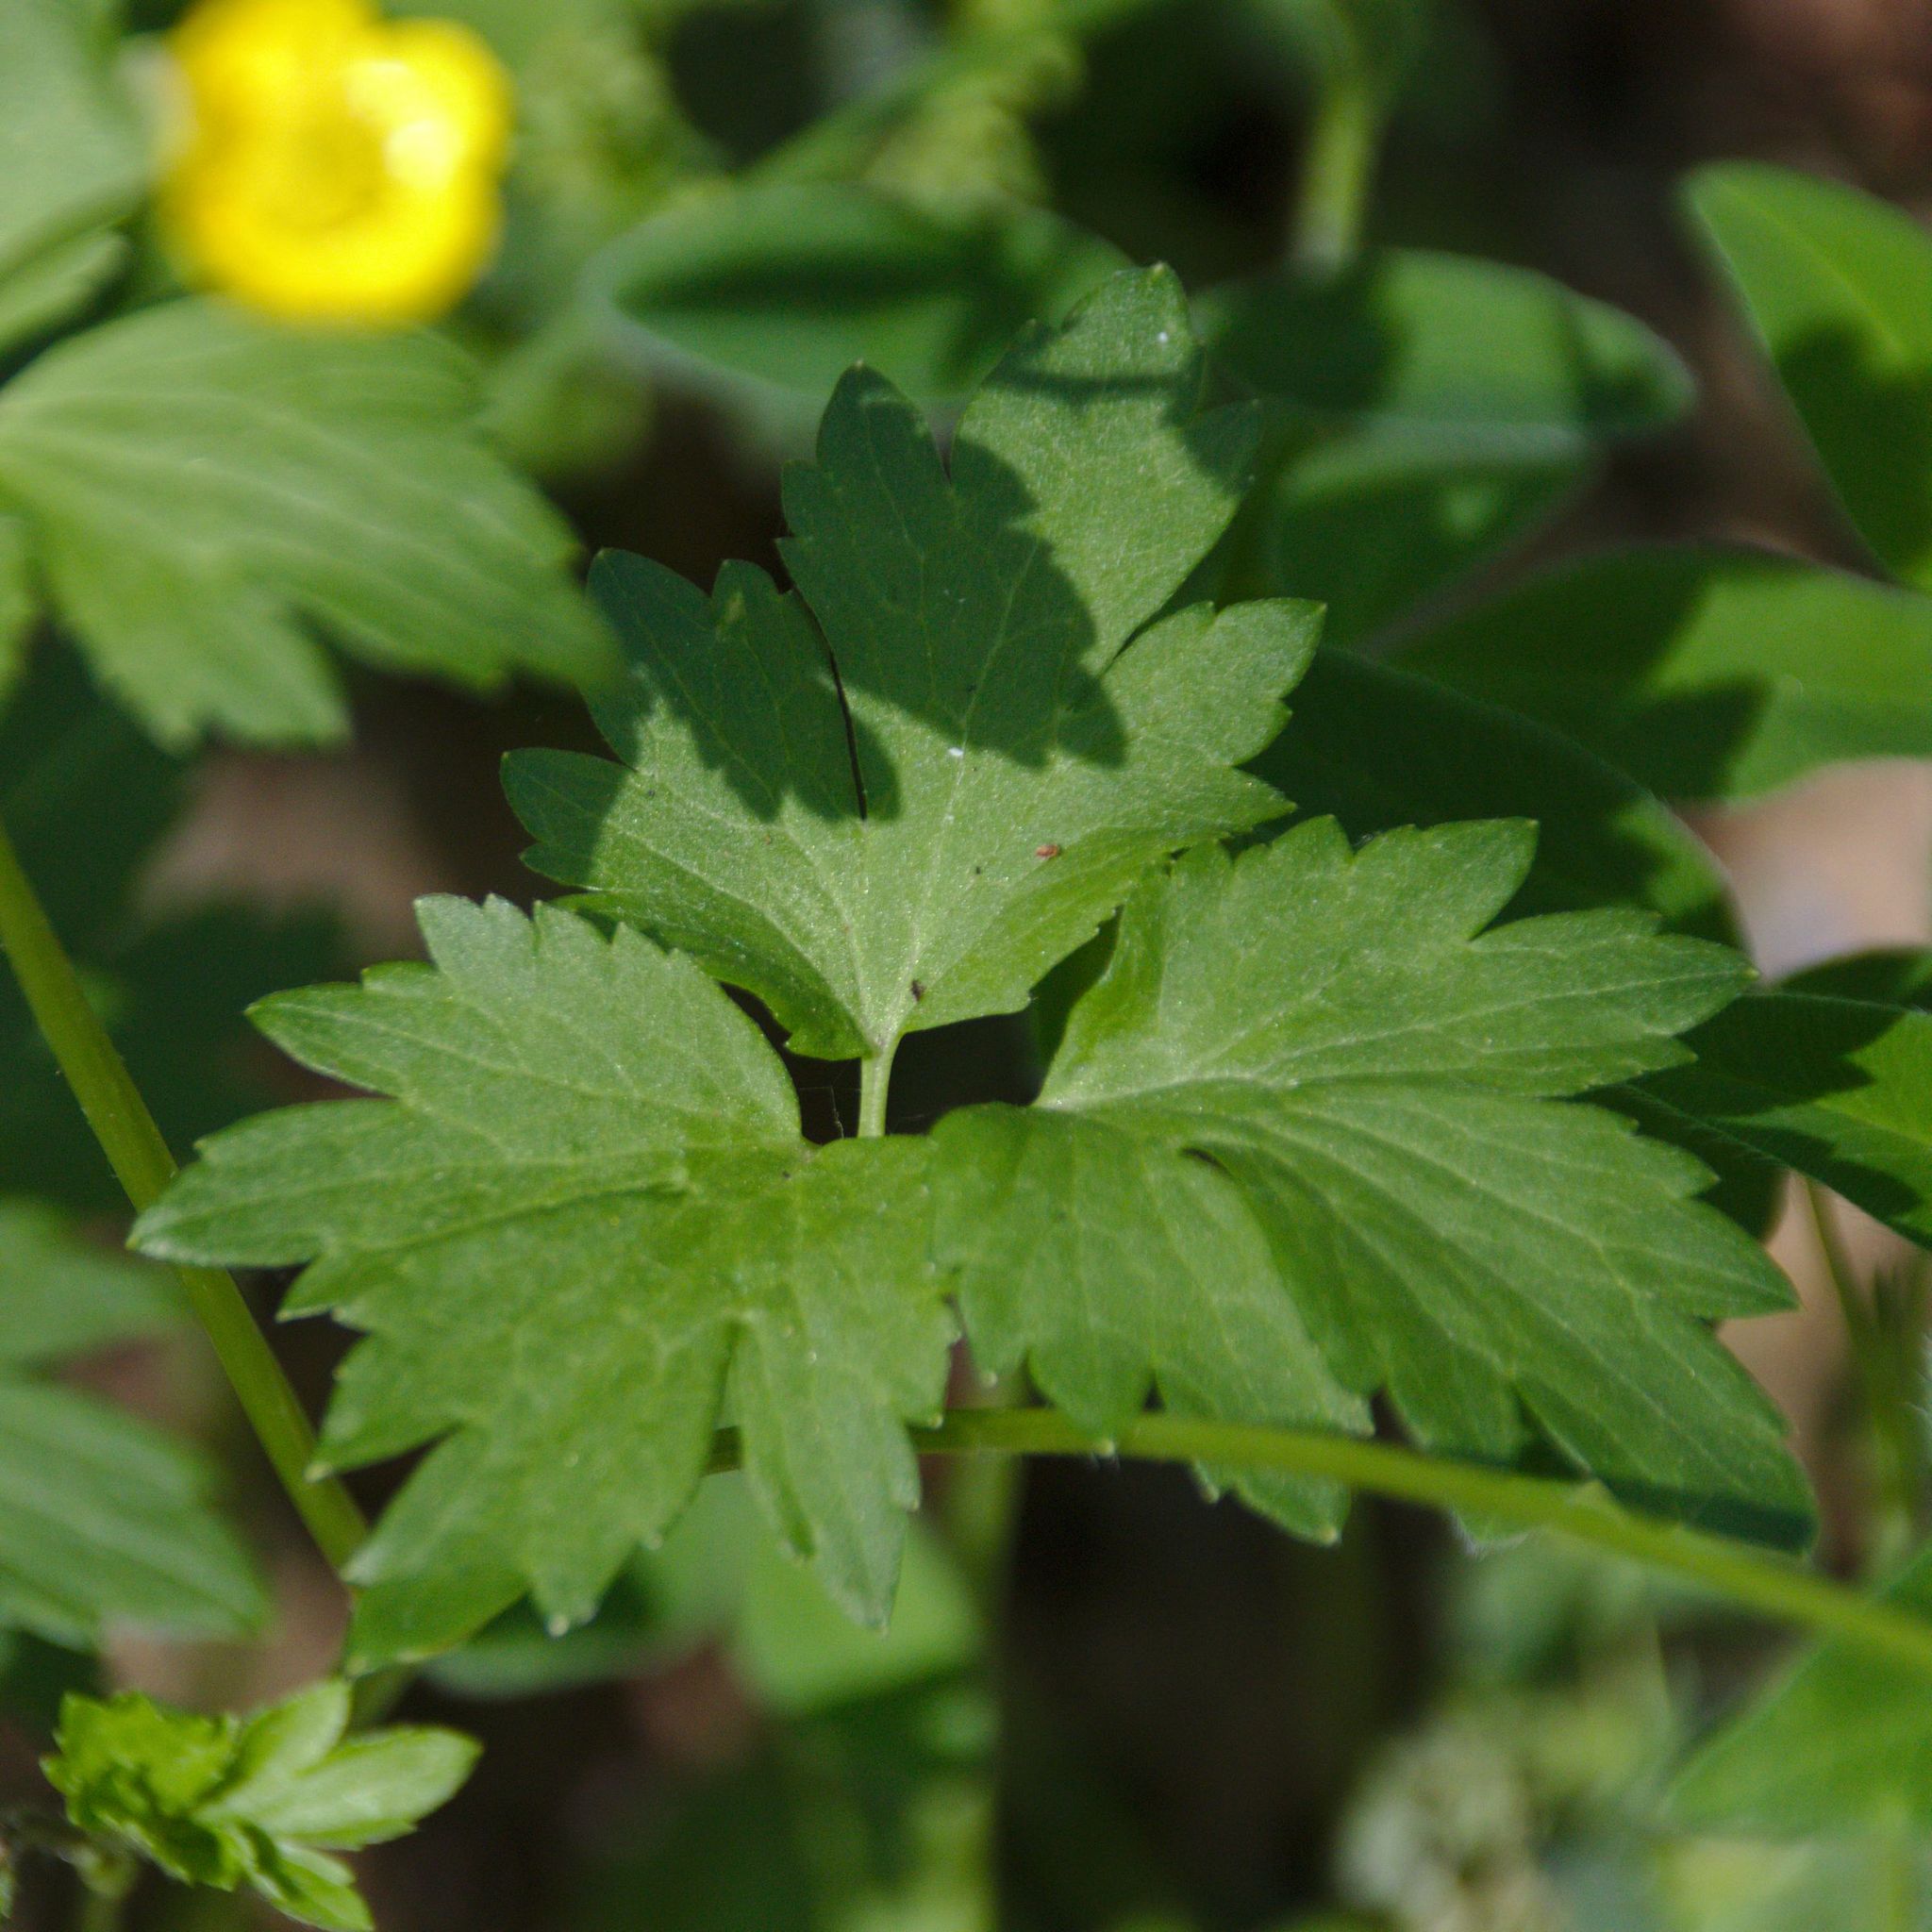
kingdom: Plantae
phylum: Tracheophyta
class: Magnoliopsida
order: Ranunculales
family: Ranunculaceae
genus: Ranunculus
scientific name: Ranunculus repens
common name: Creeping buttercup
